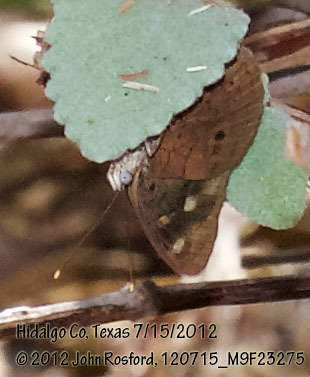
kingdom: Animalia
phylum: Arthropoda
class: Insecta
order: Lepidoptera
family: Nymphalidae
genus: Eunica
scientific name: Eunica monima
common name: Dingy purplewing
